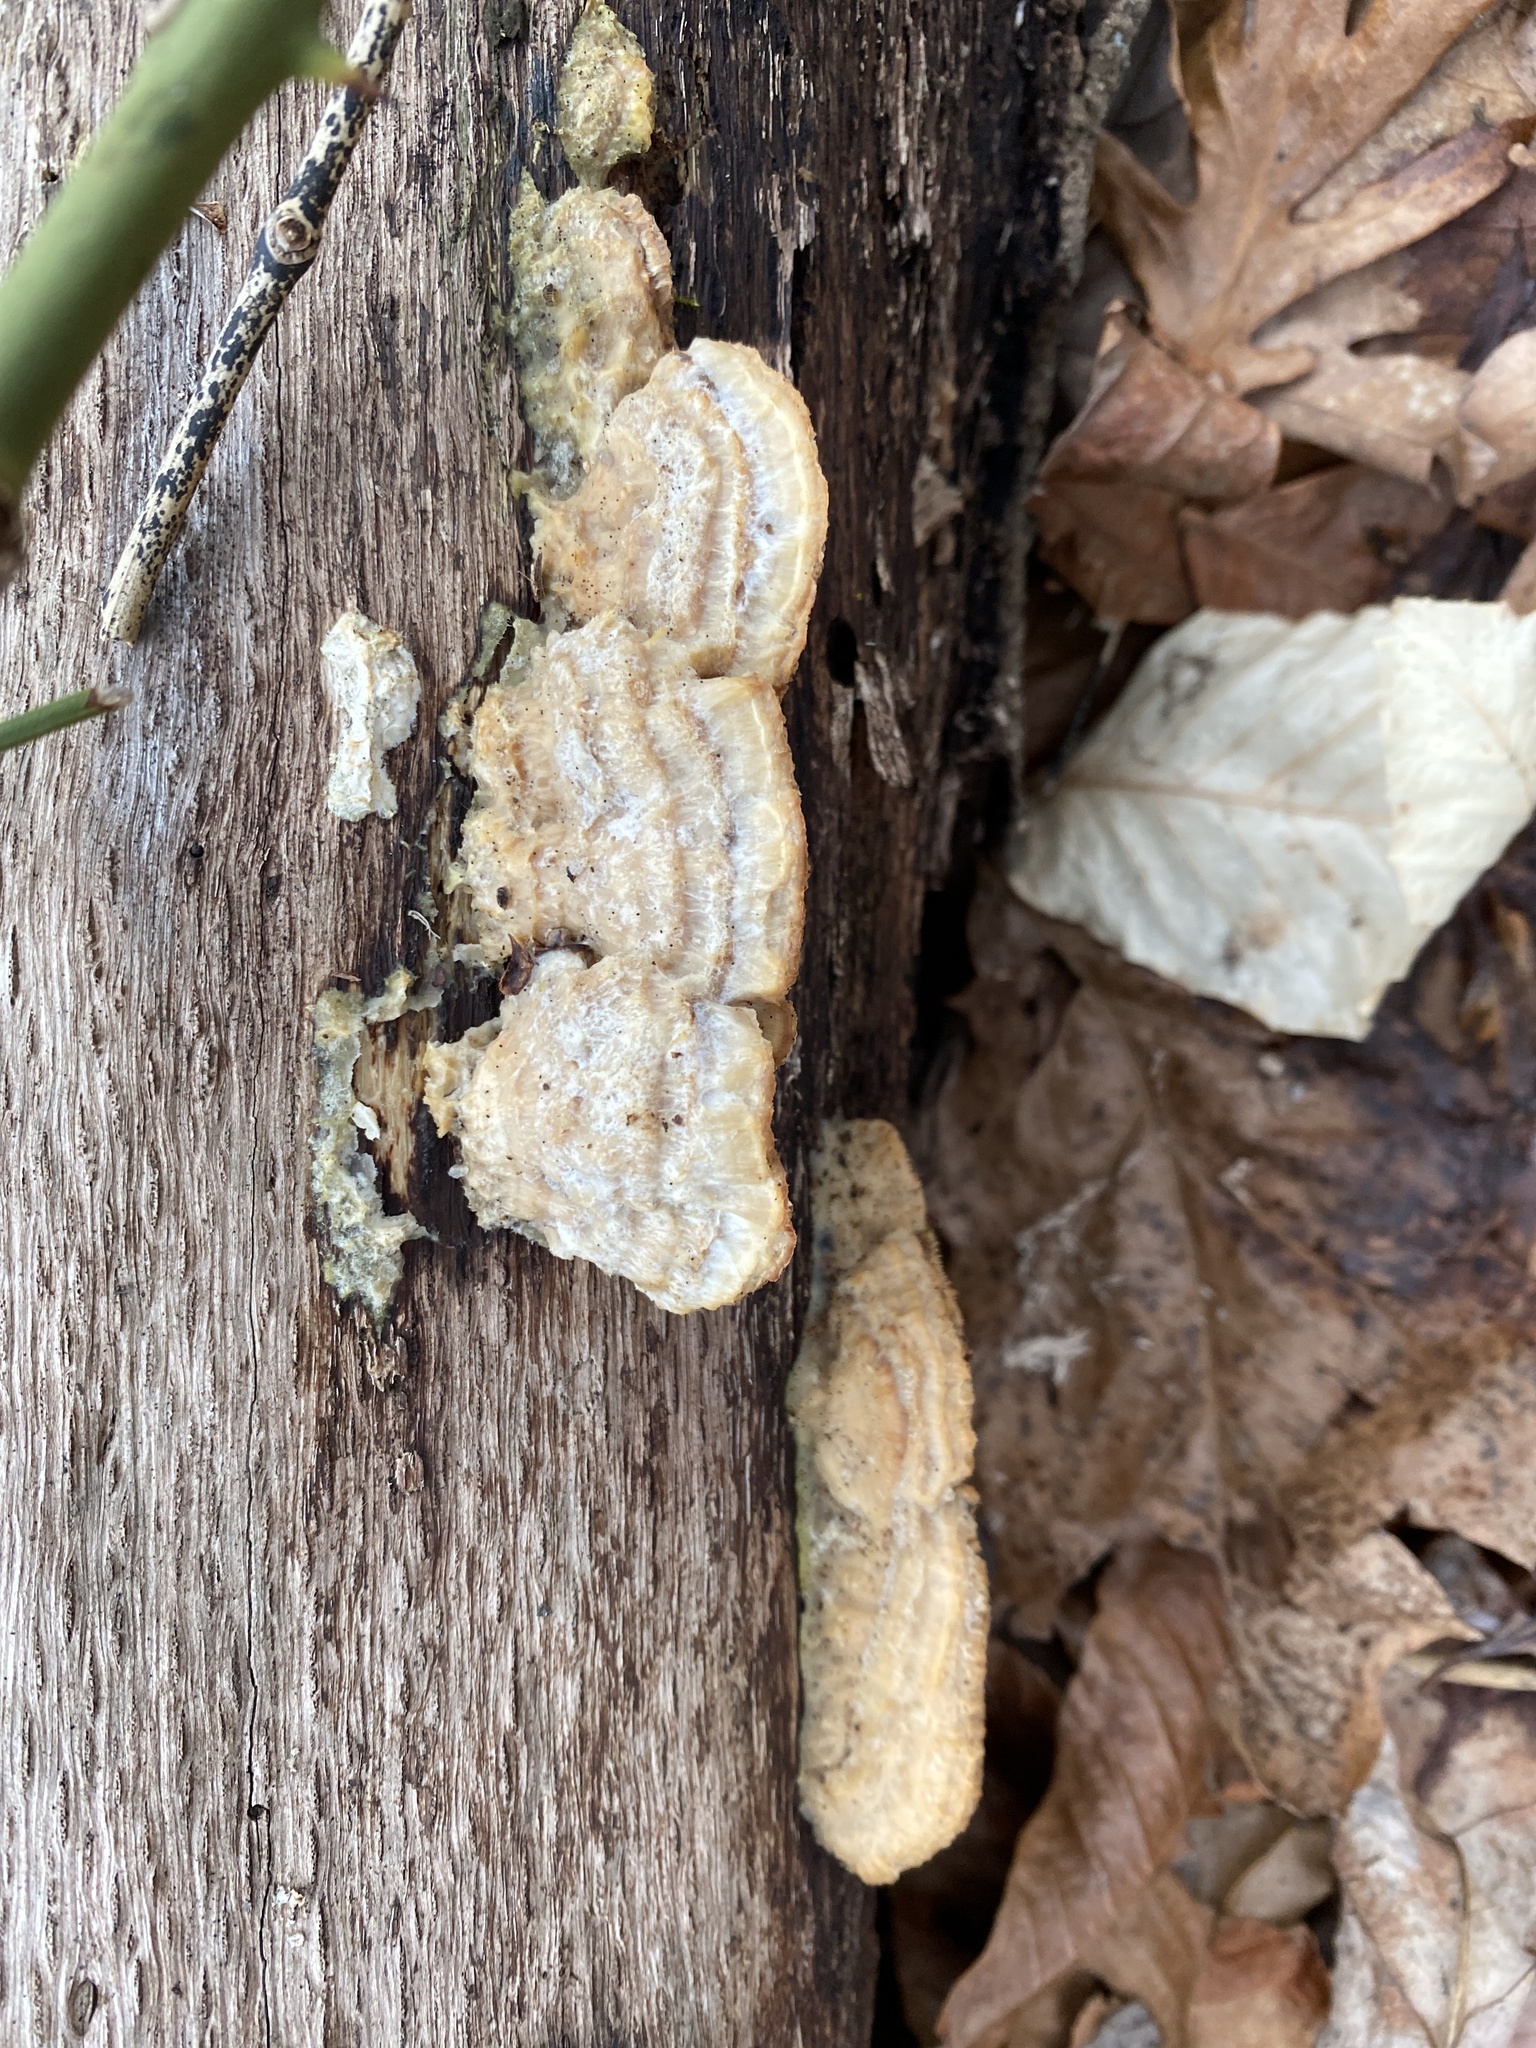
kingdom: Fungi
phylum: Basidiomycota
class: Agaricomycetes
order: Polyporales
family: Fomitopsidaceae
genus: Fomitopsis
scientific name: Fomitopsis
